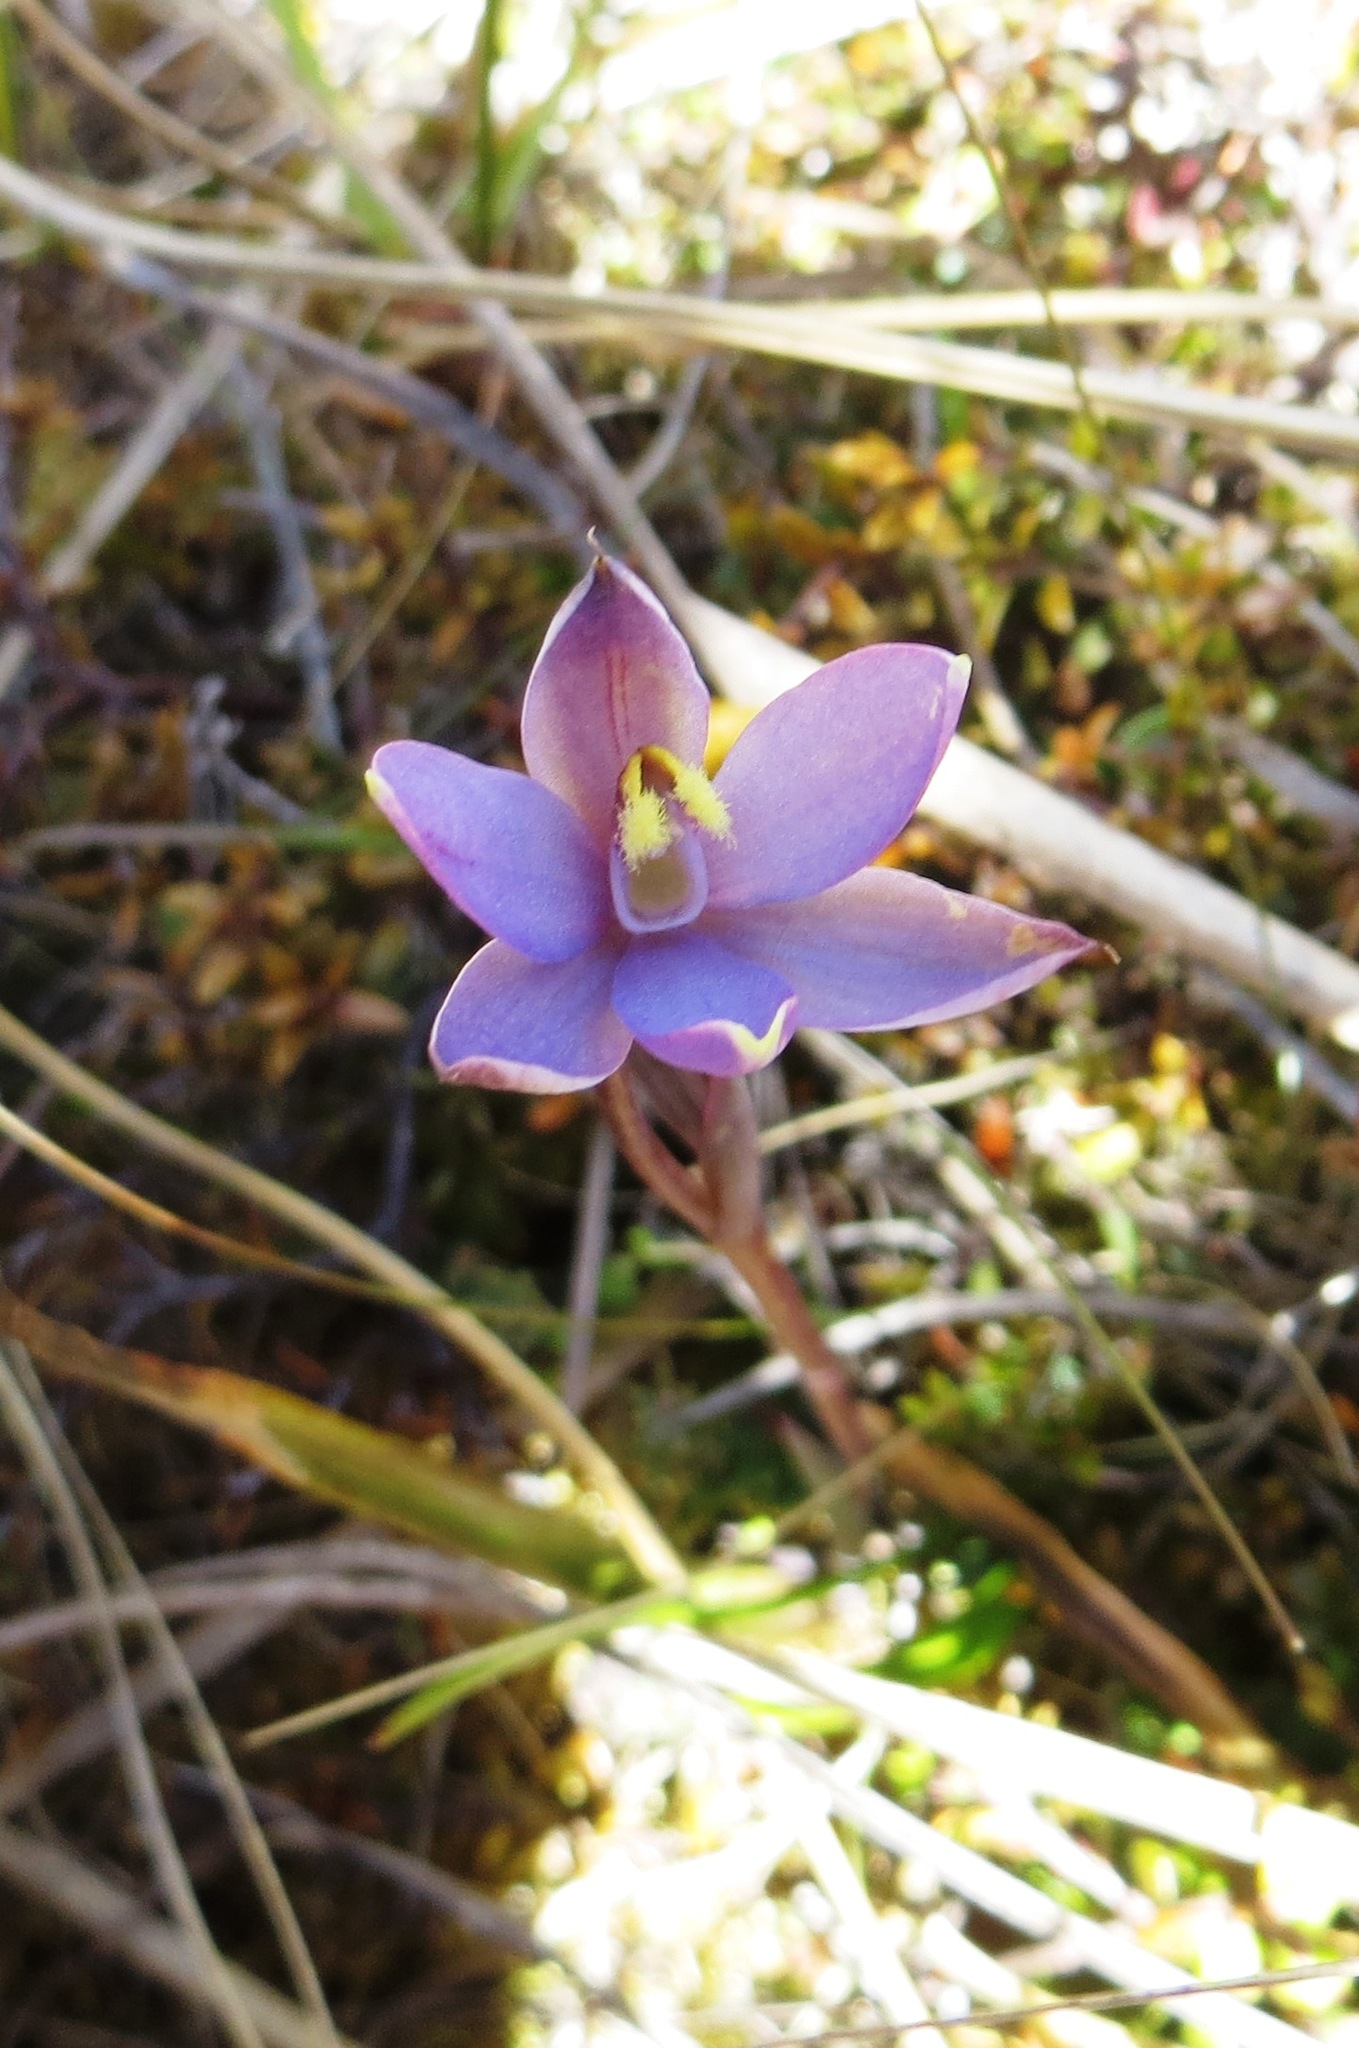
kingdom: Plantae
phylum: Tracheophyta
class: Liliopsida
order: Asparagales
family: Orchidaceae
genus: Thelymitra
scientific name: Thelymitra hatchii
